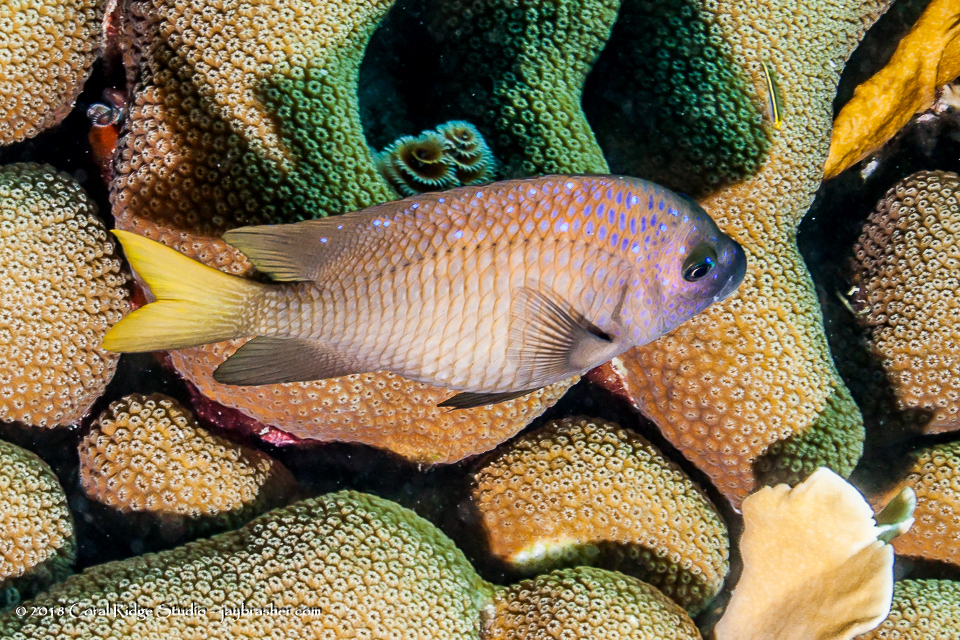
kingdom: Animalia
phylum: Chordata
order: Perciformes
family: Pomacentridae
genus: Microspathodon
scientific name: Microspathodon chrysurus
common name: Yellowtail damselfish
